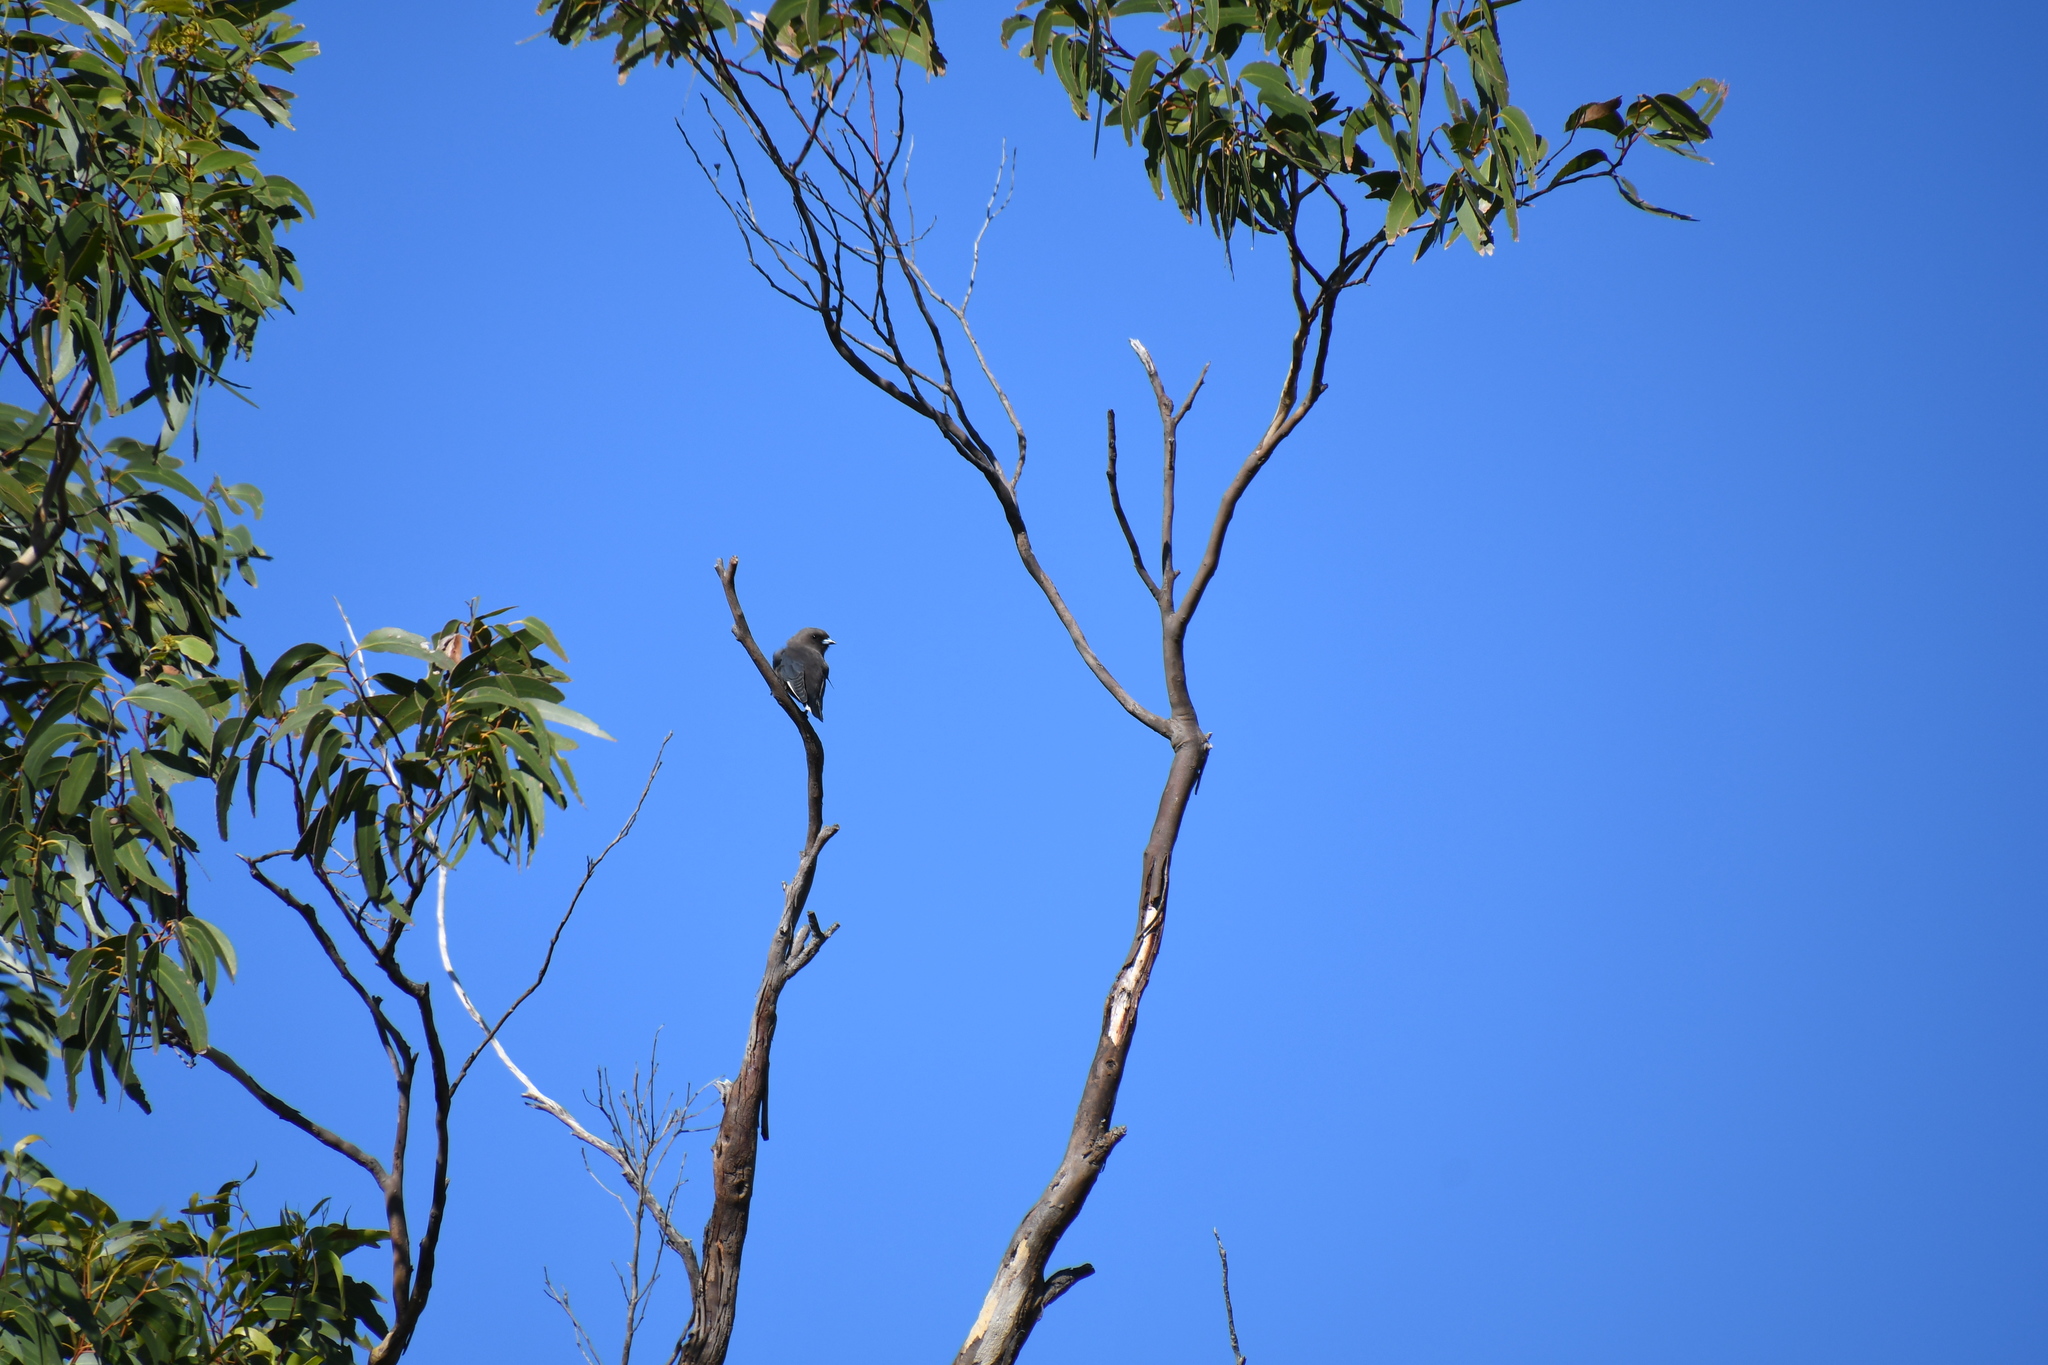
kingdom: Animalia
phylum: Chordata
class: Aves
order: Passeriformes
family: Artamidae
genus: Artamus
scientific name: Artamus cyanopterus
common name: Dusky woodswallow
